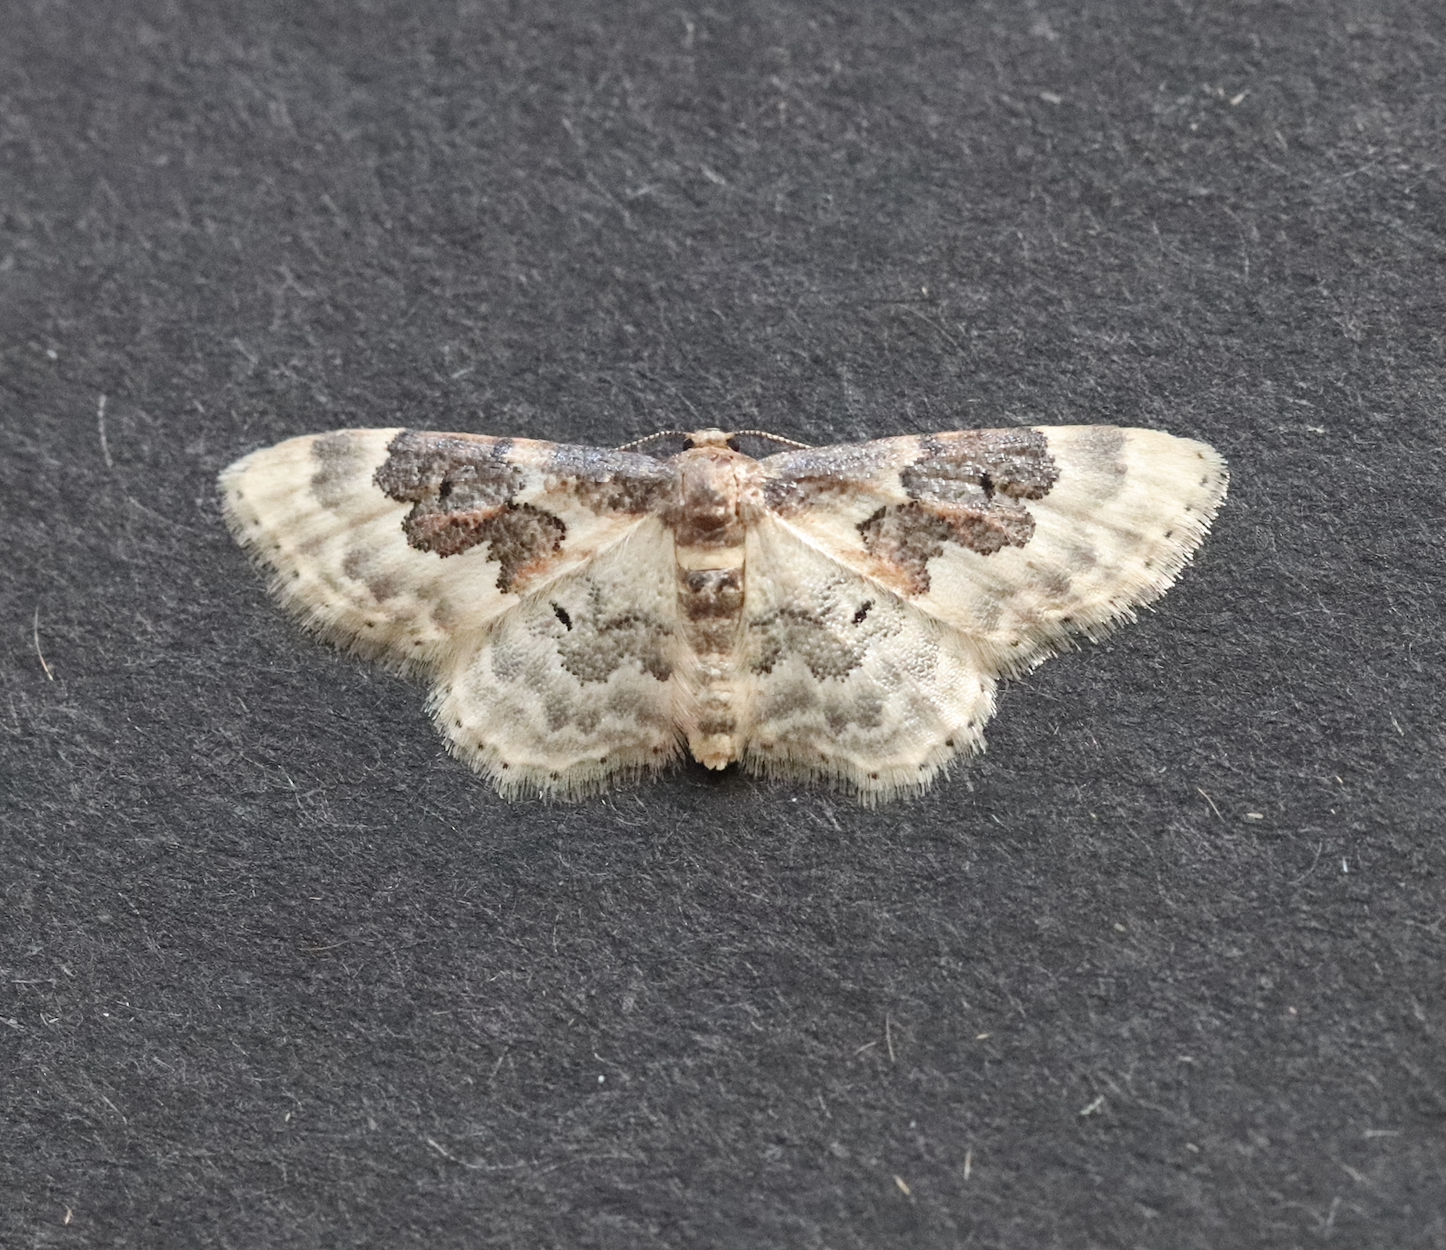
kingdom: Animalia
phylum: Arthropoda
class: Insecta
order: Lepidoptera
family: Geometridae
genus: Idaea
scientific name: Idaea rusticata
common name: Least carpet
